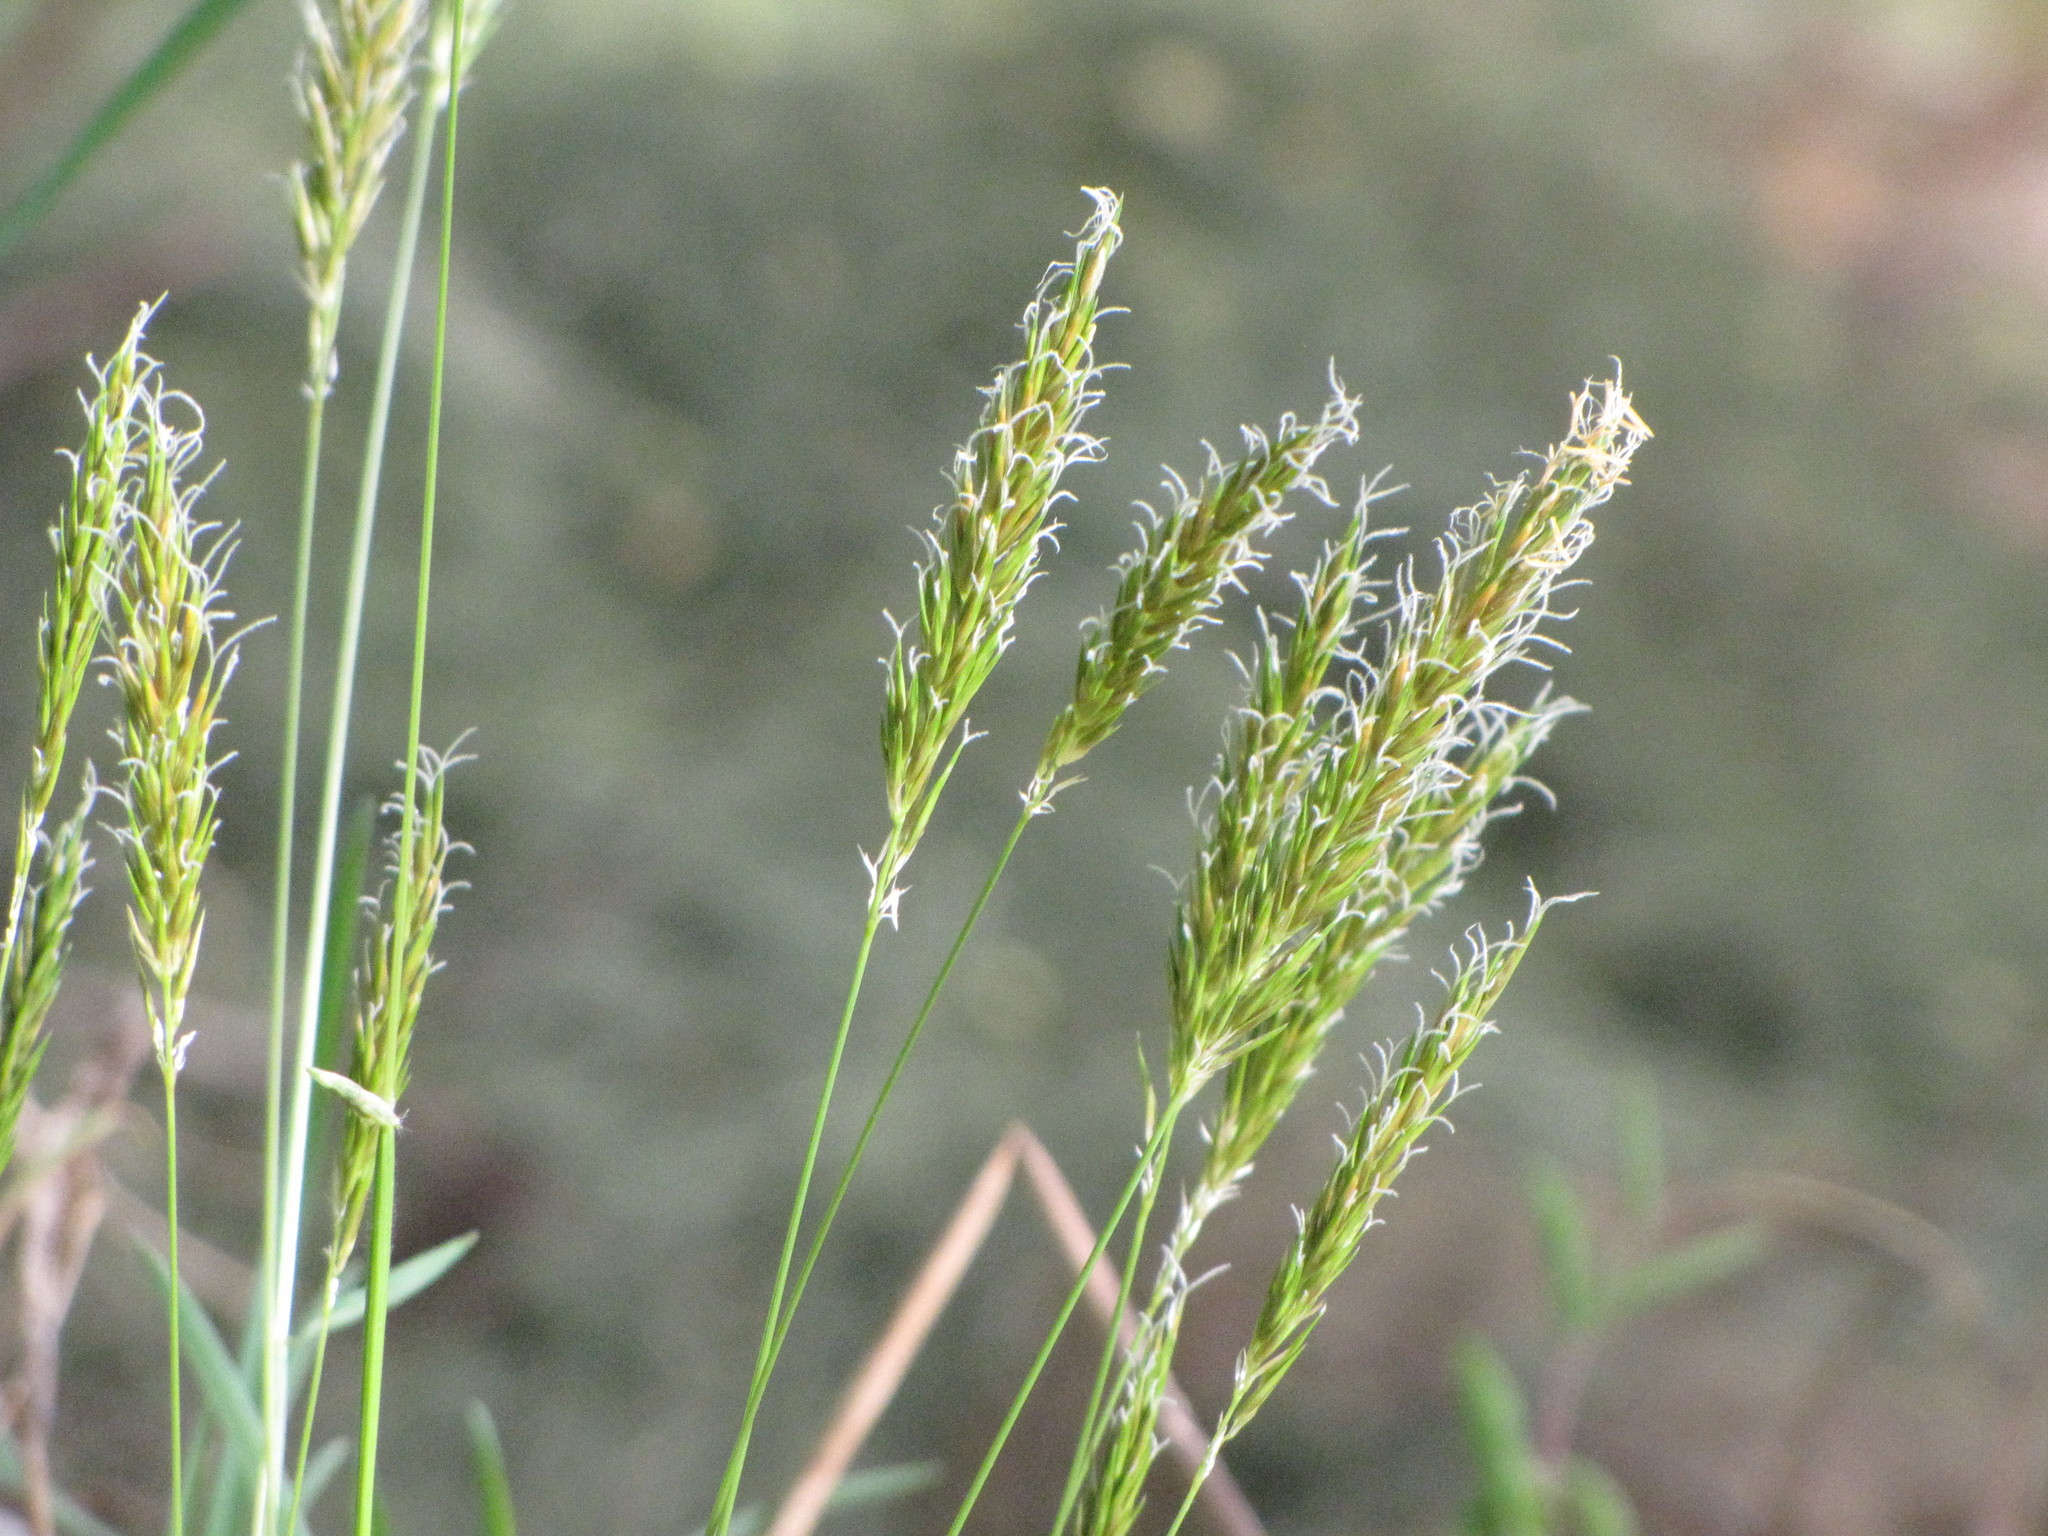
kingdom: Plantae
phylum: Tracheophyta
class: Liliopsida
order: Poales
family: Poaceae
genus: Anthoxanthum
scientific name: Anthoxanthum odoratum
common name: Sweet vernalgrass
